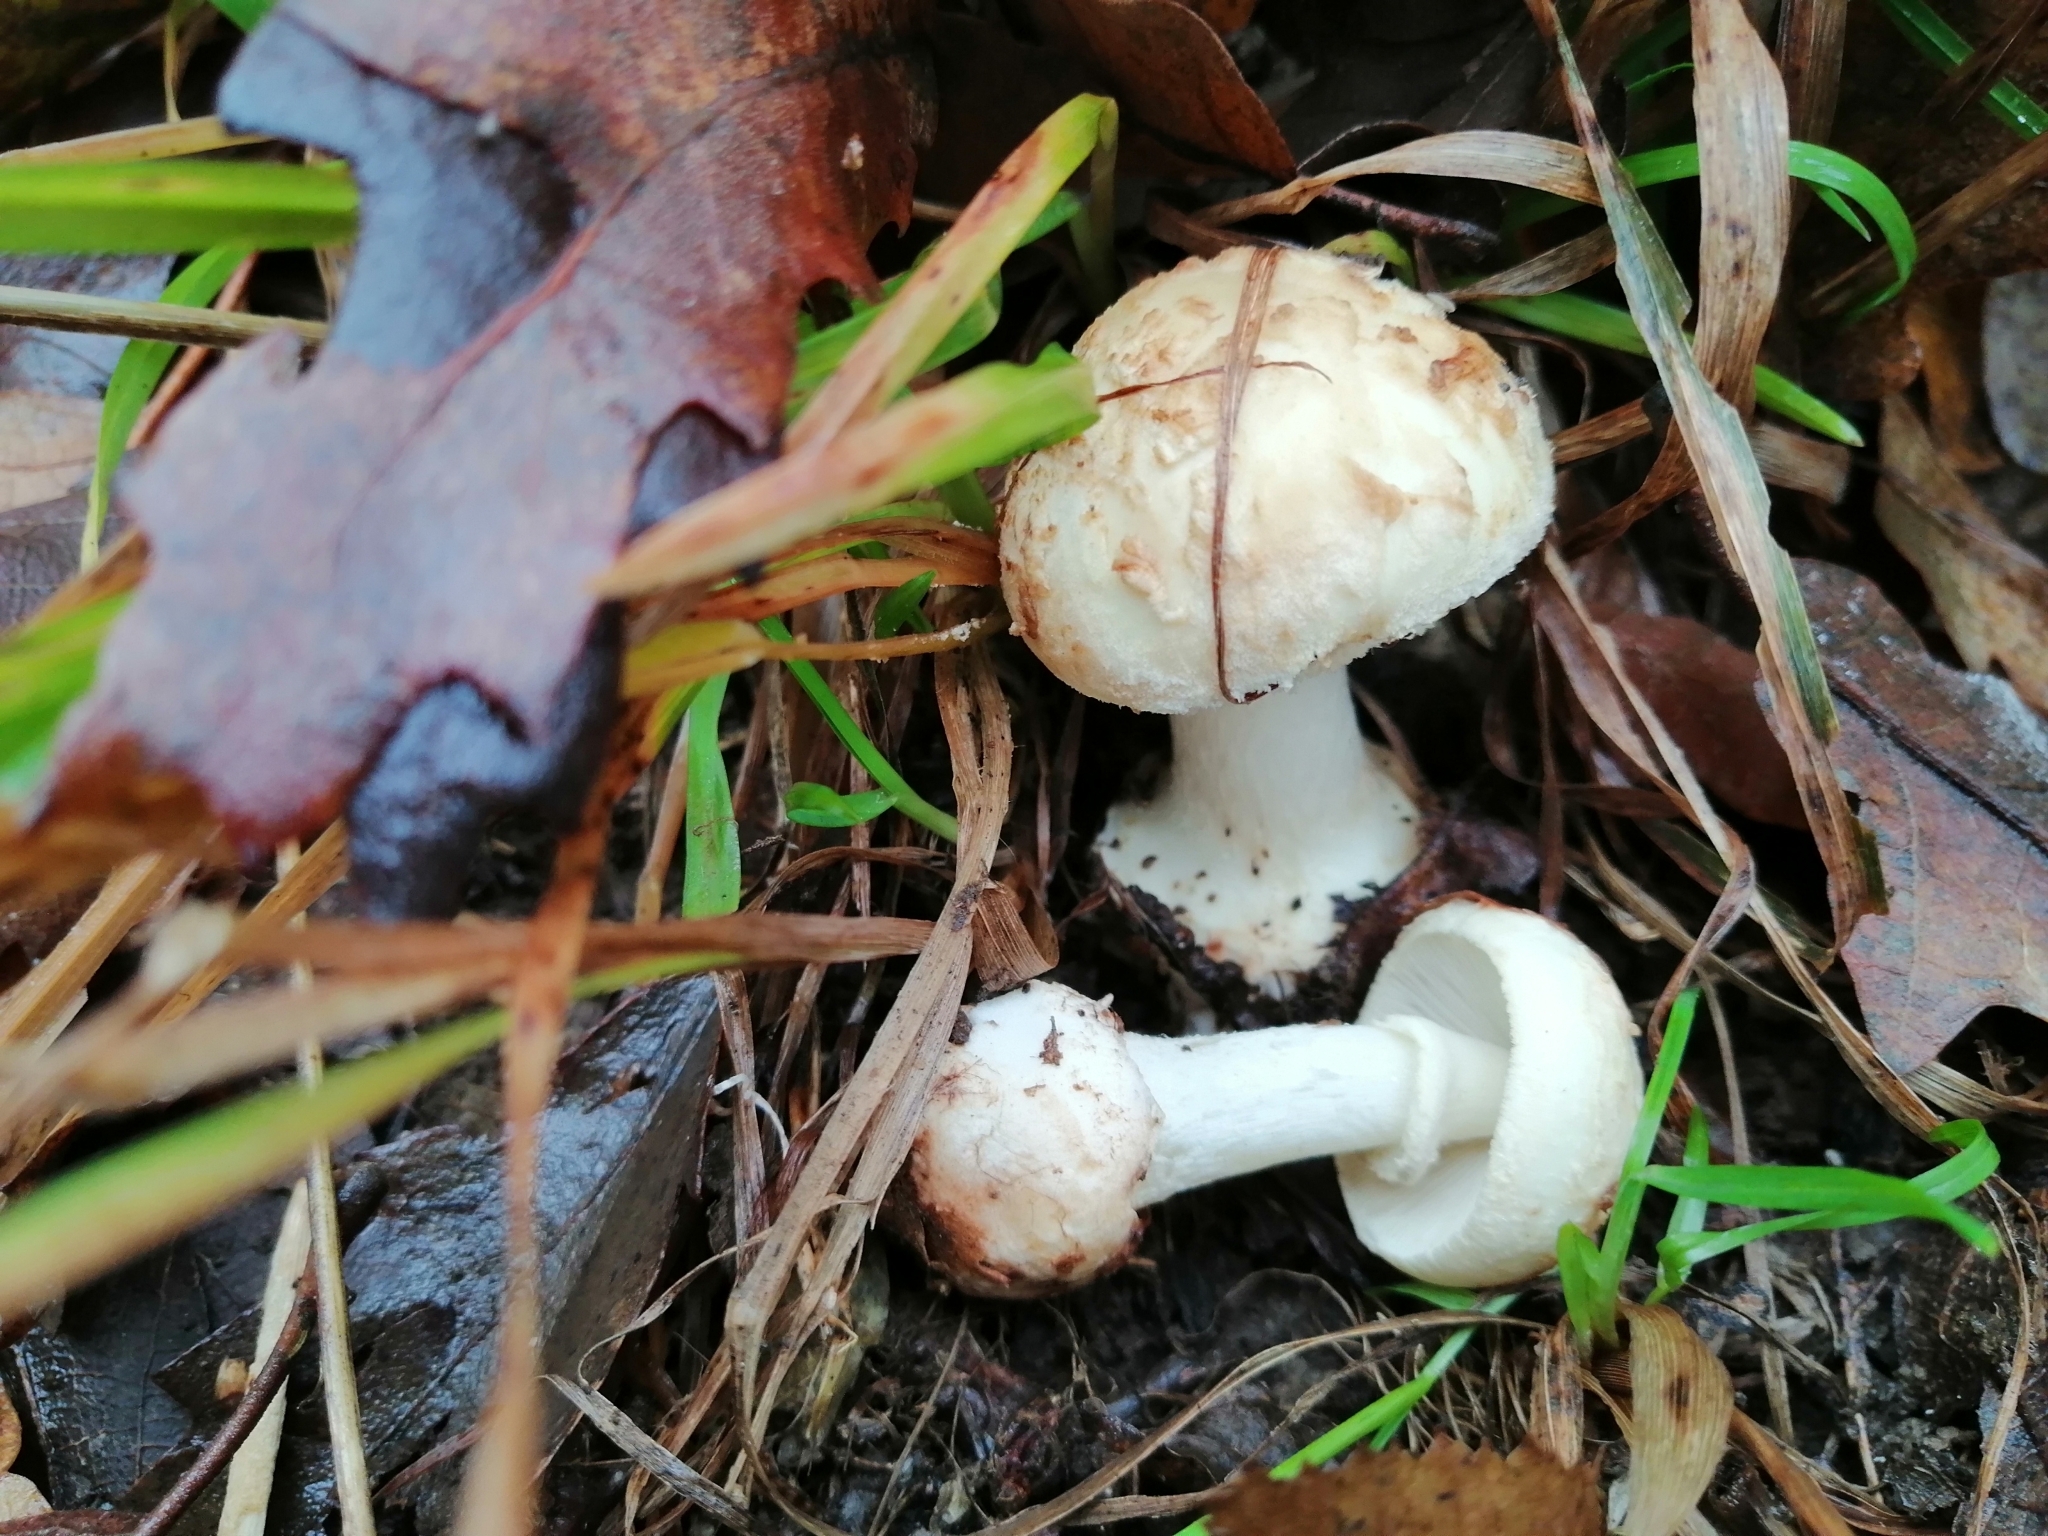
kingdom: Fungi
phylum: Basidiomycota
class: Agaricomycetes
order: Agaricales
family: Amanitaceae
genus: Amanita
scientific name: Amanita citrina
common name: False death-cap
